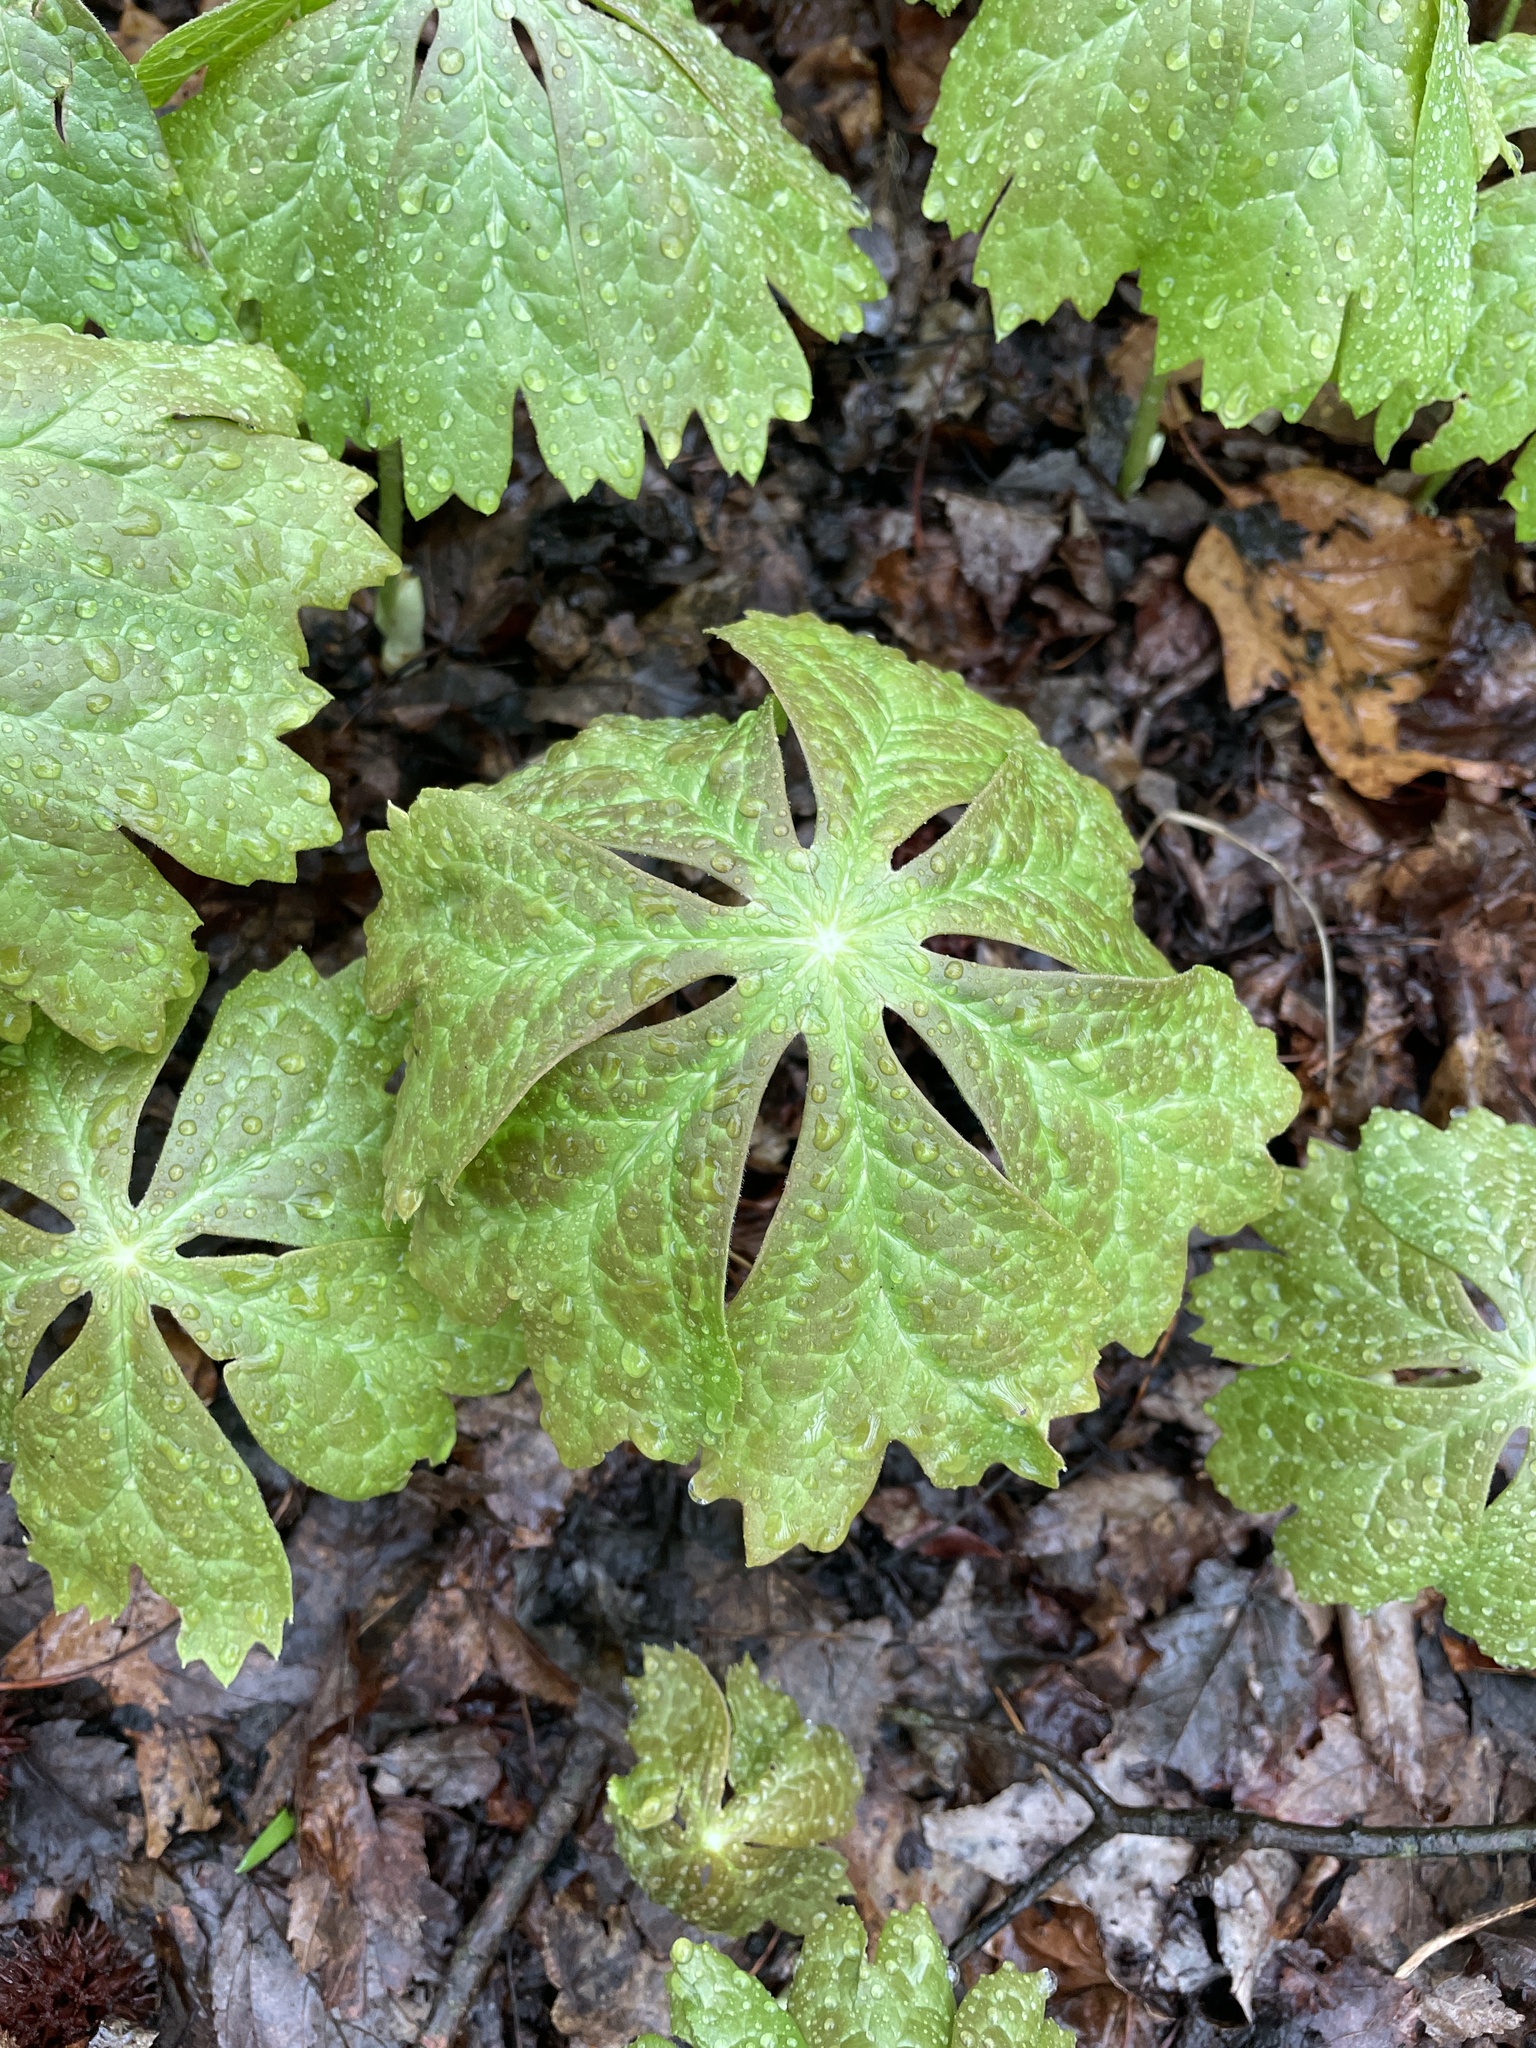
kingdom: Plantae
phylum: Tracheophyta
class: Magnoliopsida
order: Ranunculales
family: Berberidaceae
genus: Podophyllum
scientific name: Podophyllum peltatum
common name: Wild mandrake
